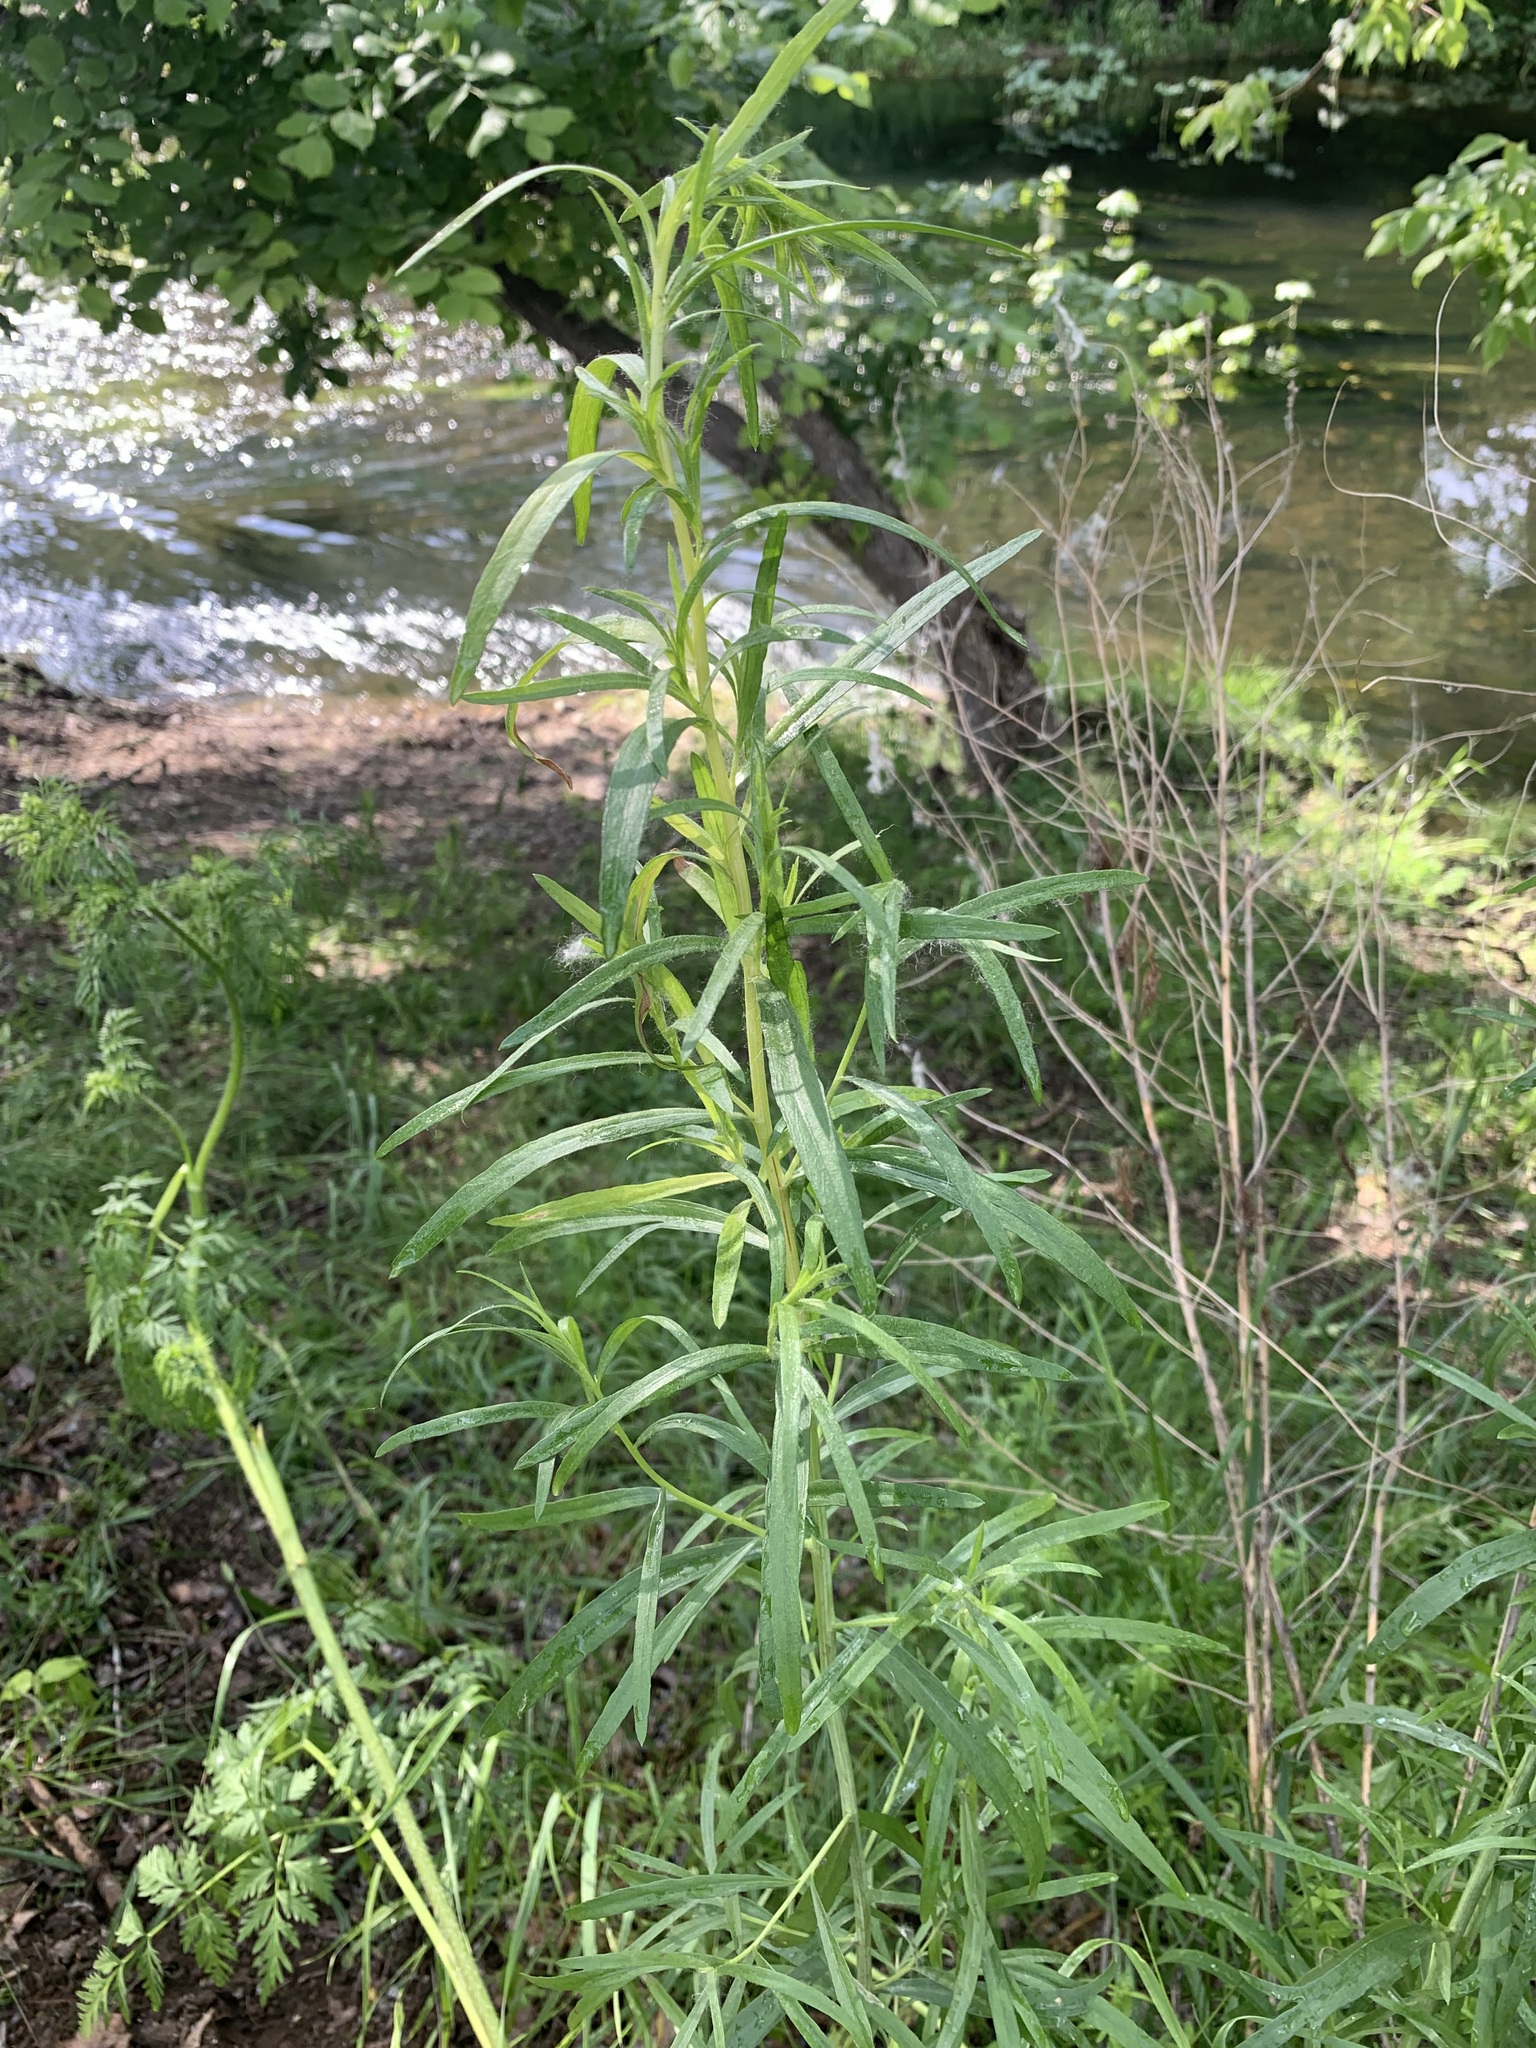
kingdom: Plantae
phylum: Tracheophyta
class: Magnoliopsida
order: Asterales
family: Asteraceae
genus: Artemisia
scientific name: Artemisia dracunculus
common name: Tarragon
